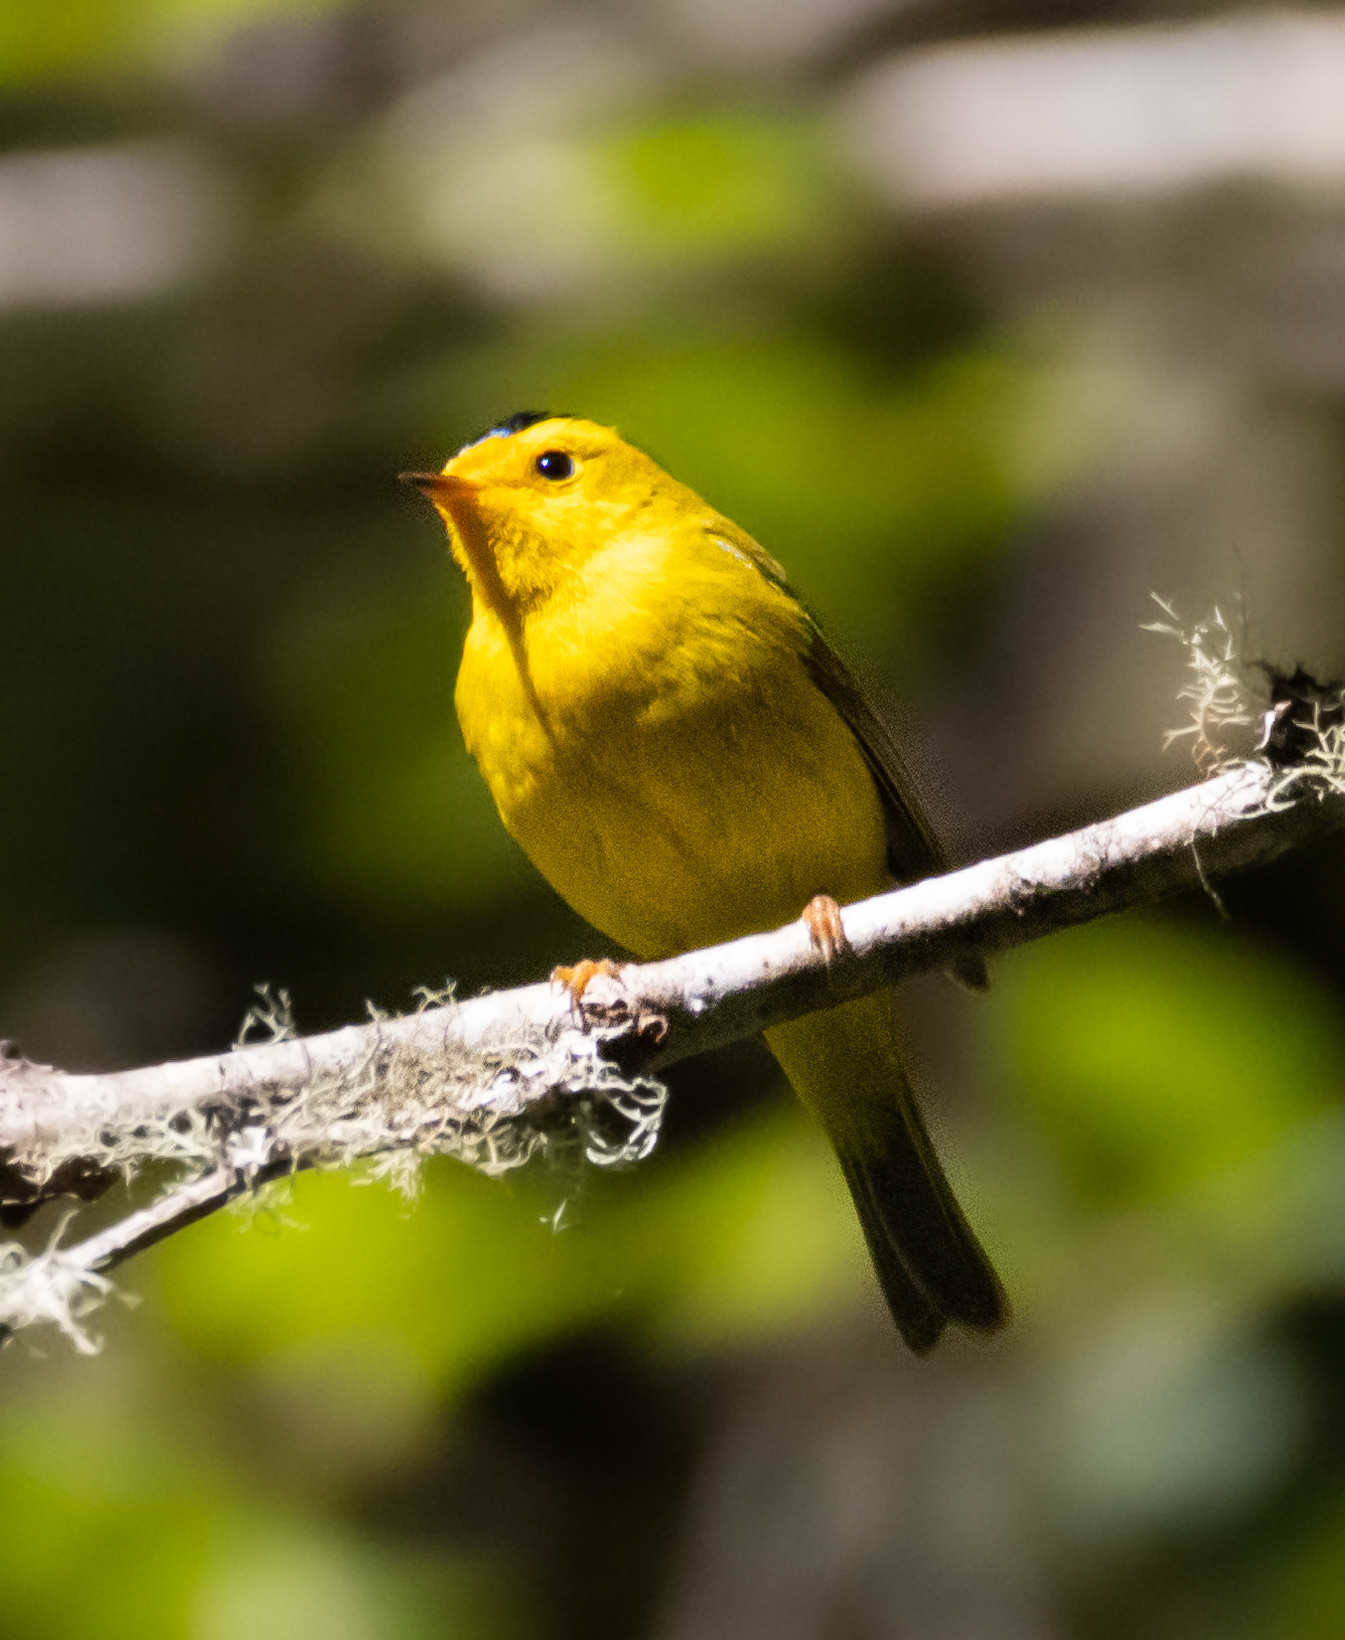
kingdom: Animalia
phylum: Chordata
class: Aves
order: Passeriformes
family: Parulidae
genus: Cardellina
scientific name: Cardellina pusilla
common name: Wilson's warbler
